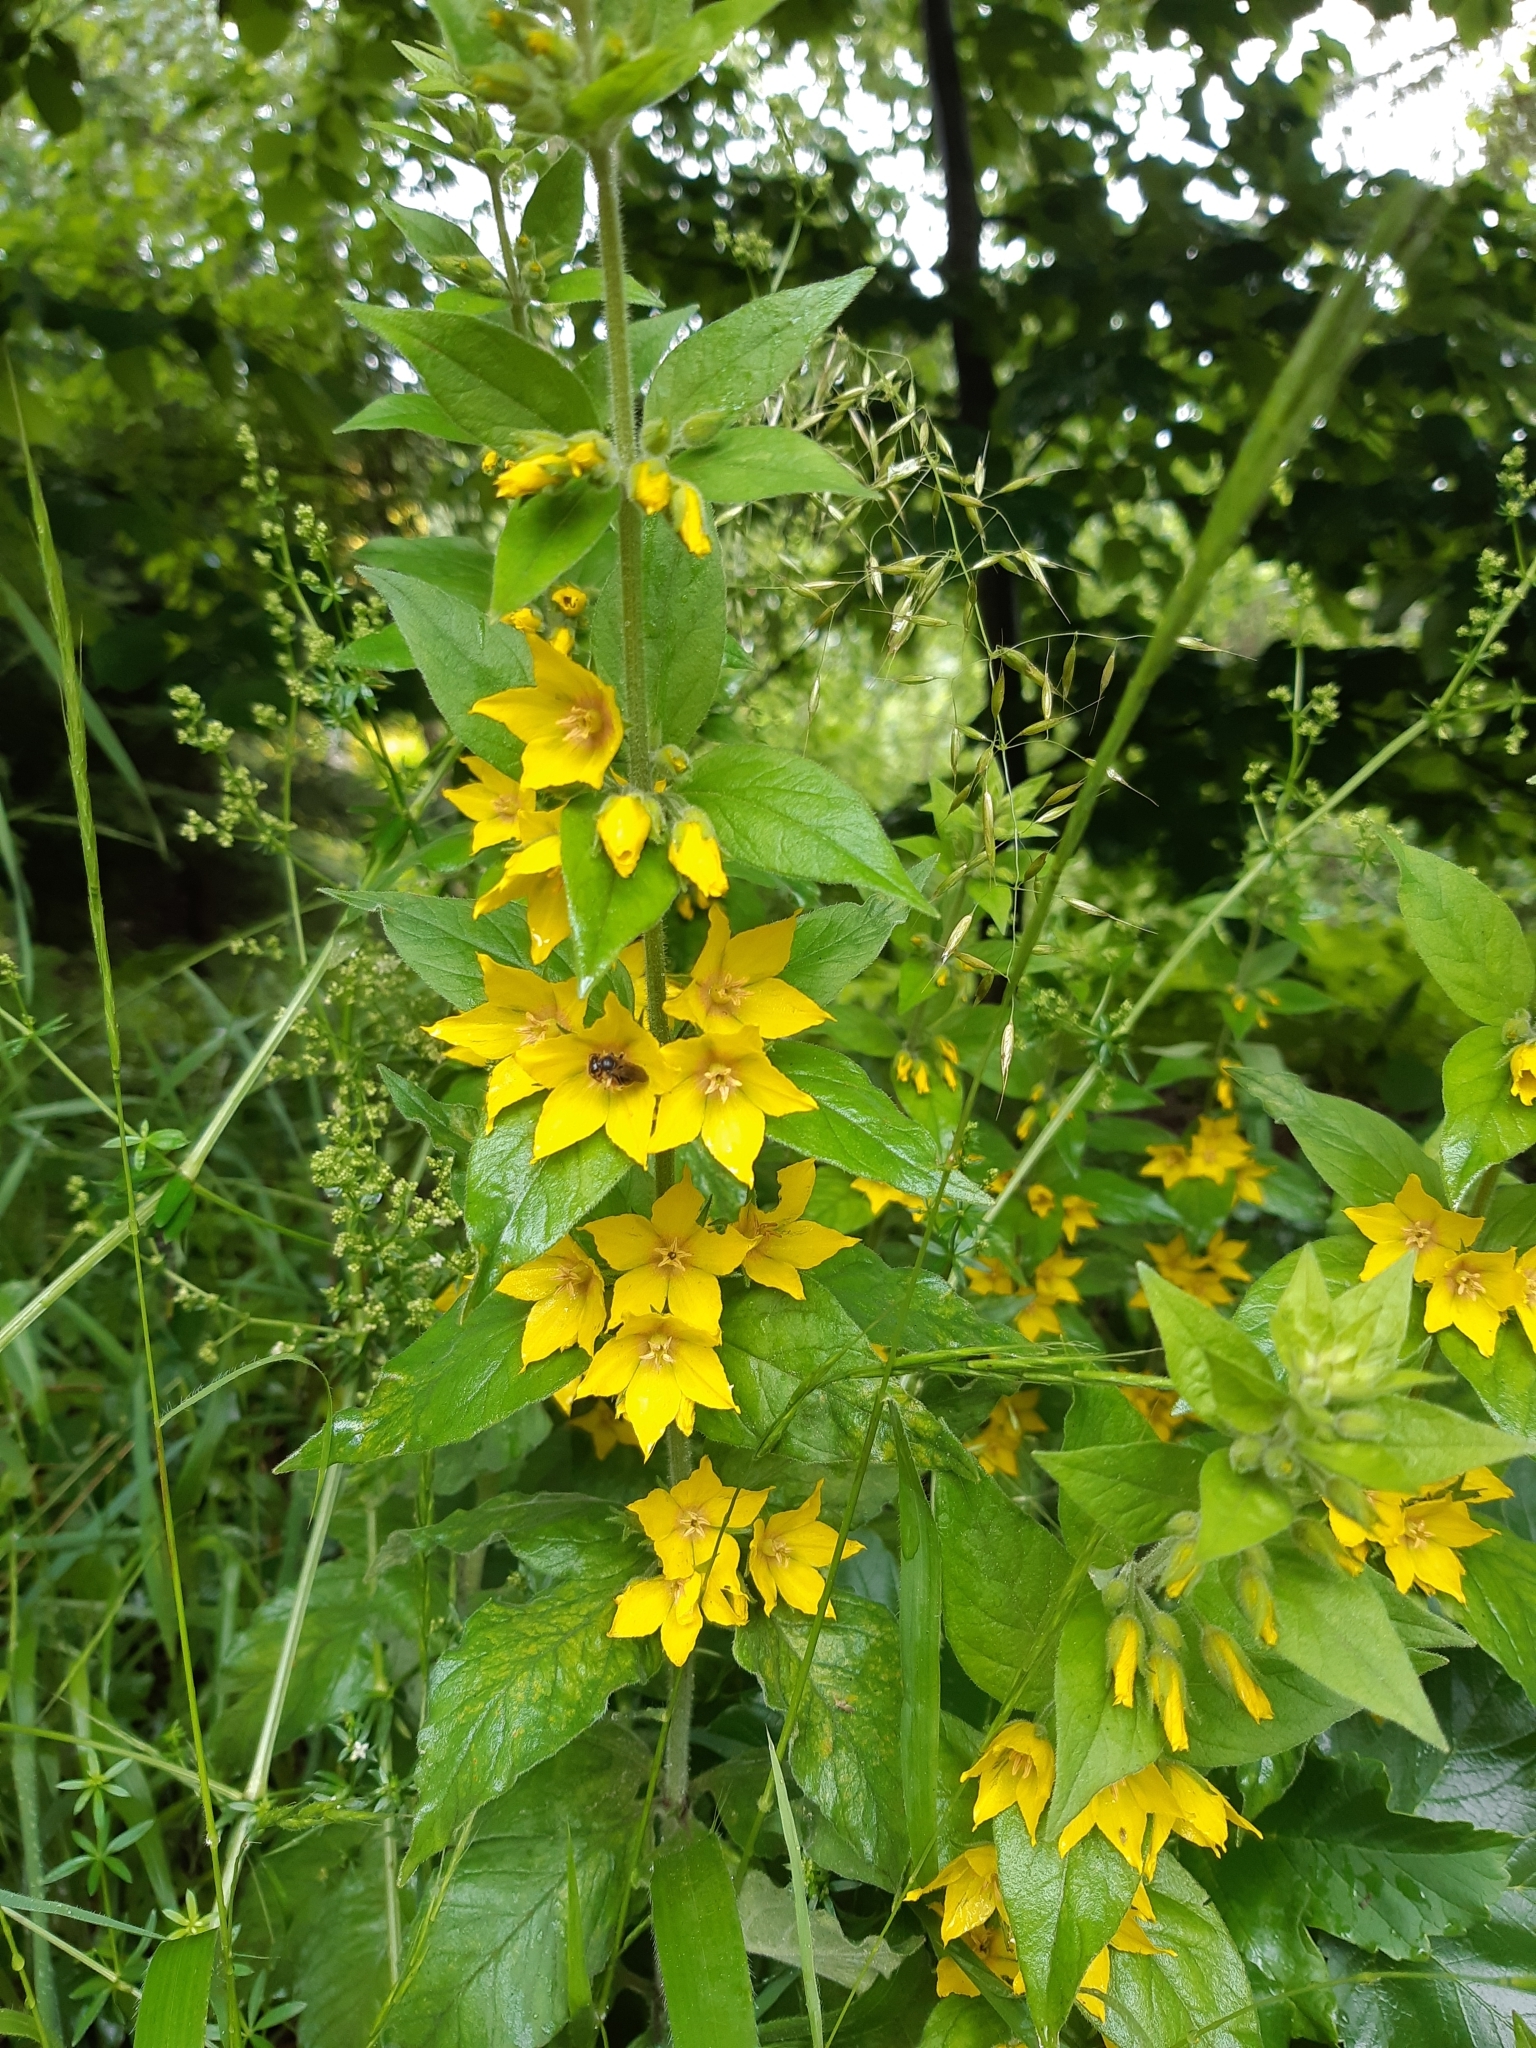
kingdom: Plantae
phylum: Tracheophyta
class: Magnoliopsida
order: Ericales
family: Primulaceae
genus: Lysimachia
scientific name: Lysimachia punctata
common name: Dotted loosestrife
